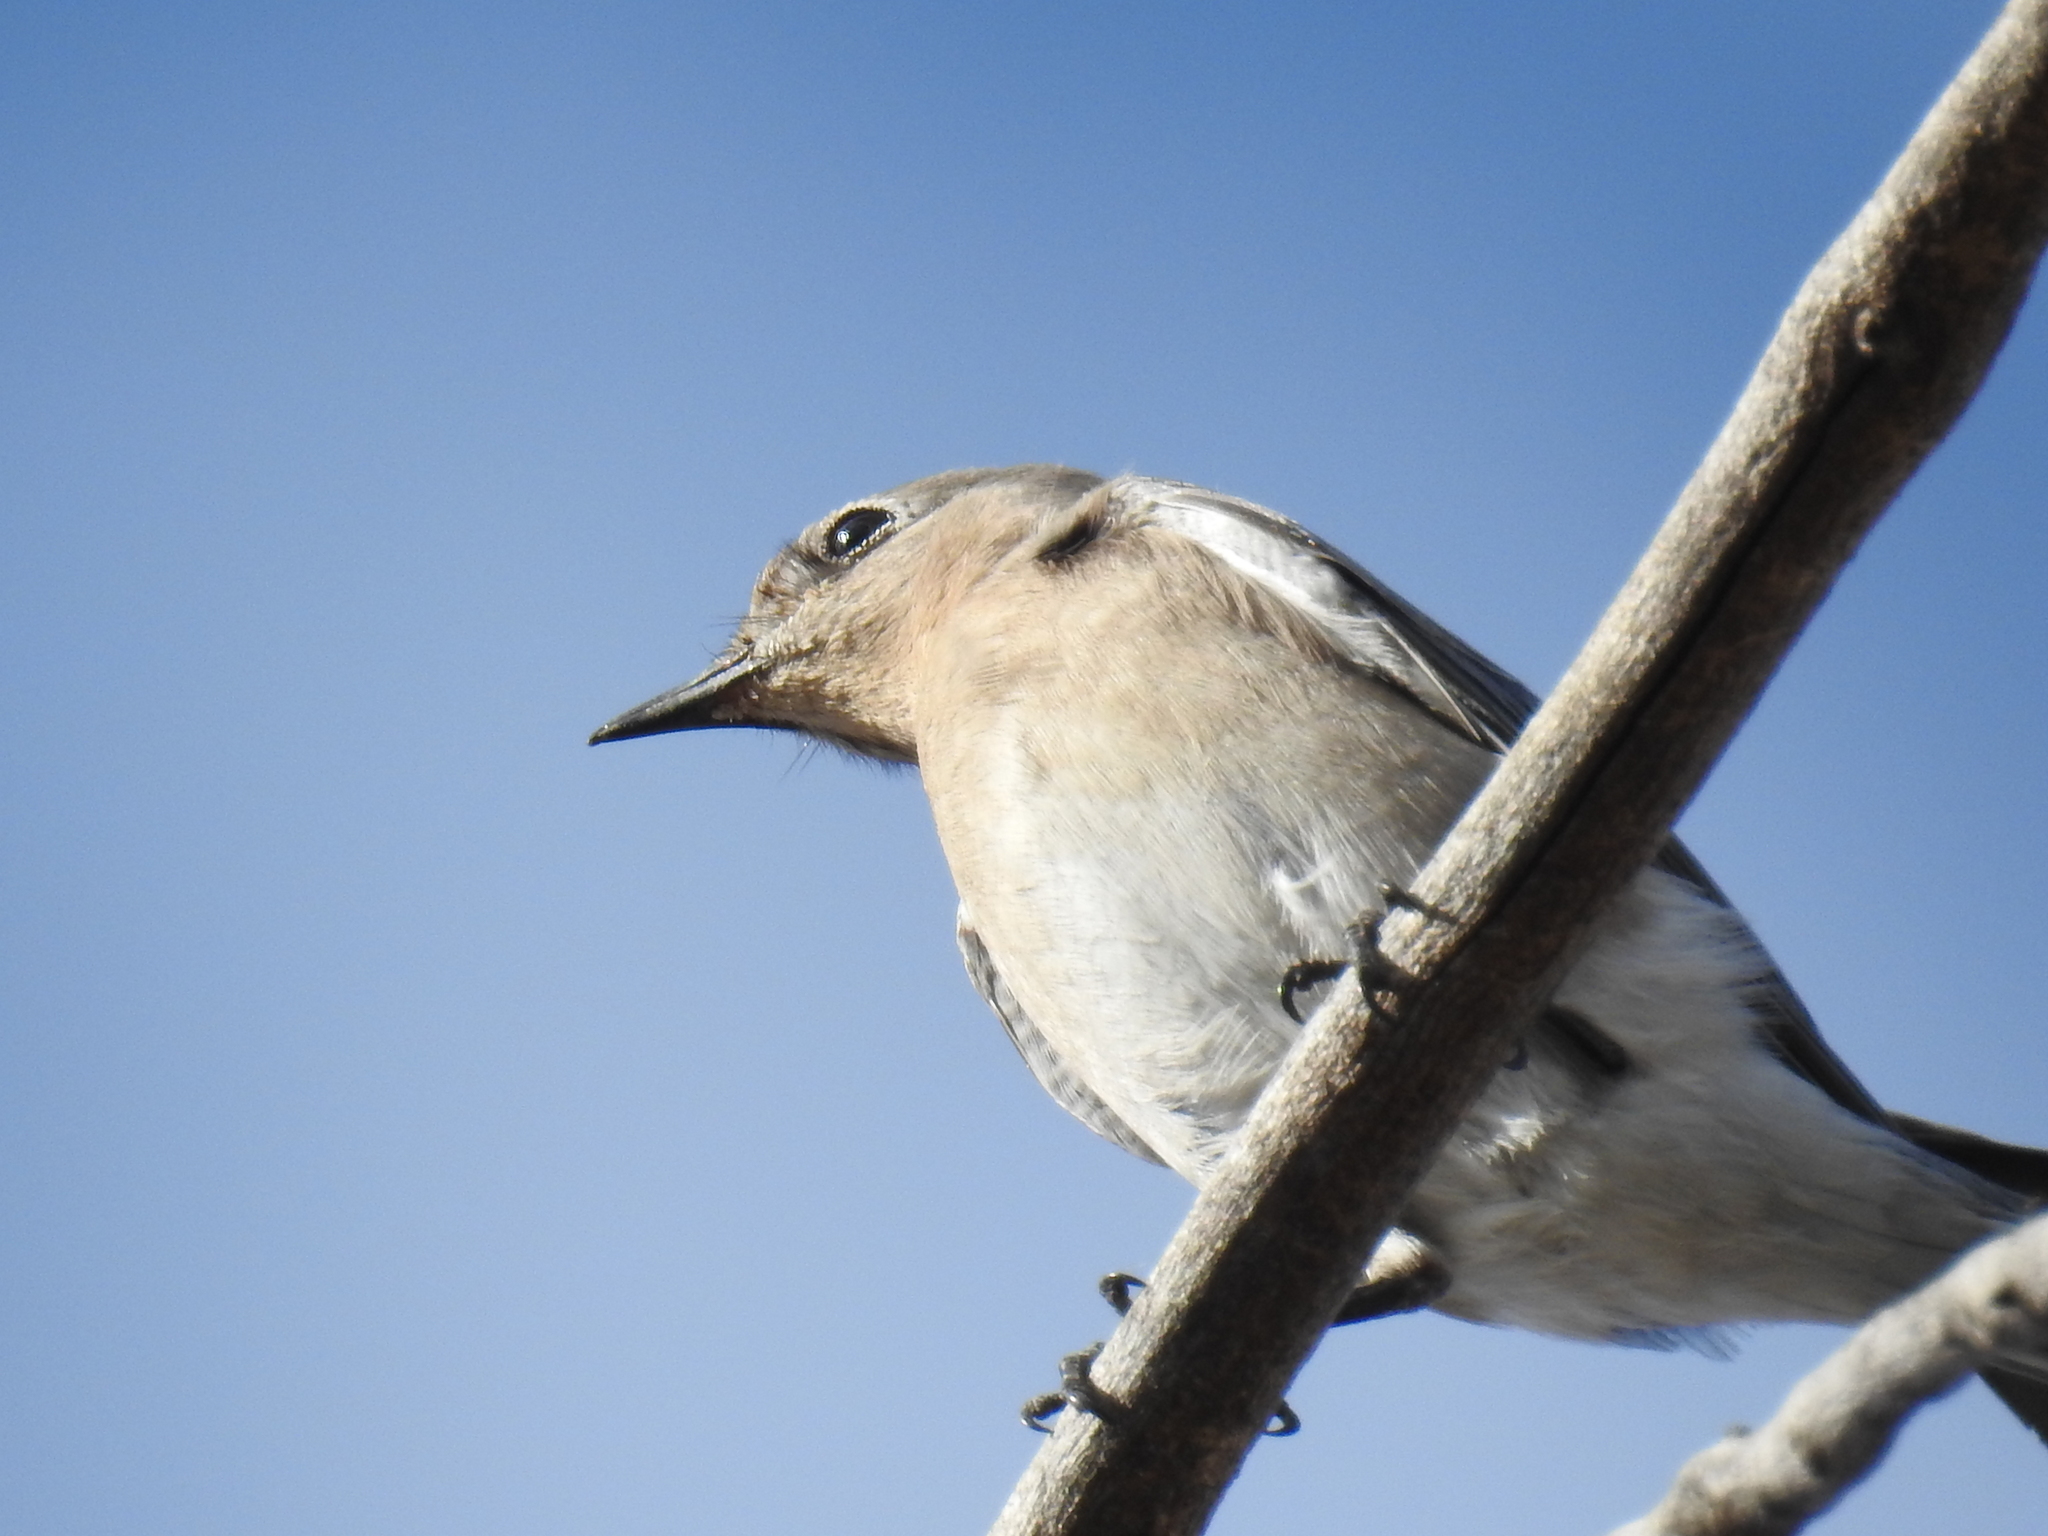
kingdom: Animalia
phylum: Chordata
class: Aves
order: Passeriformes
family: Turdidae
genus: Sialia
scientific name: Sialia currucoides
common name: Mountain bluebird
